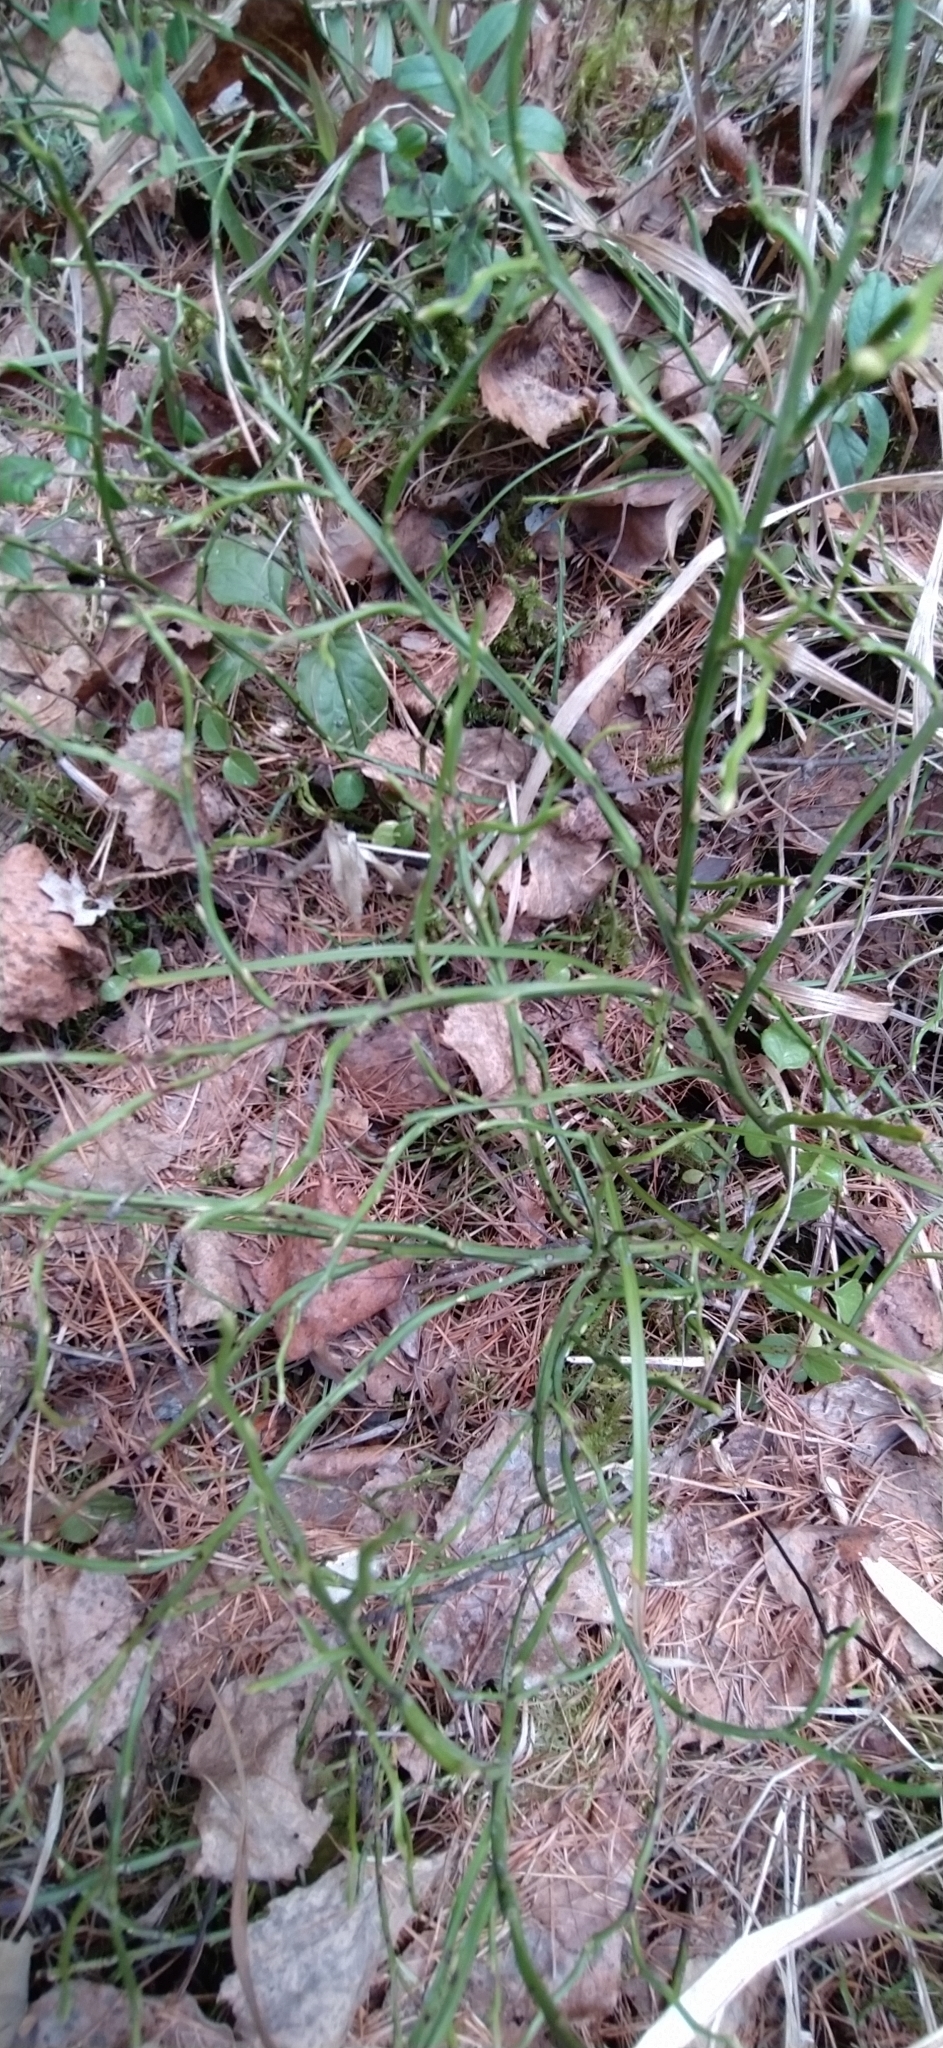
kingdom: Plantae
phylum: Tracheophyta
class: Magnoliopsida
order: Ericales
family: Ericaceae
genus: Vaccinium
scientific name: Vaccinium myrtillus
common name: Bilberry
